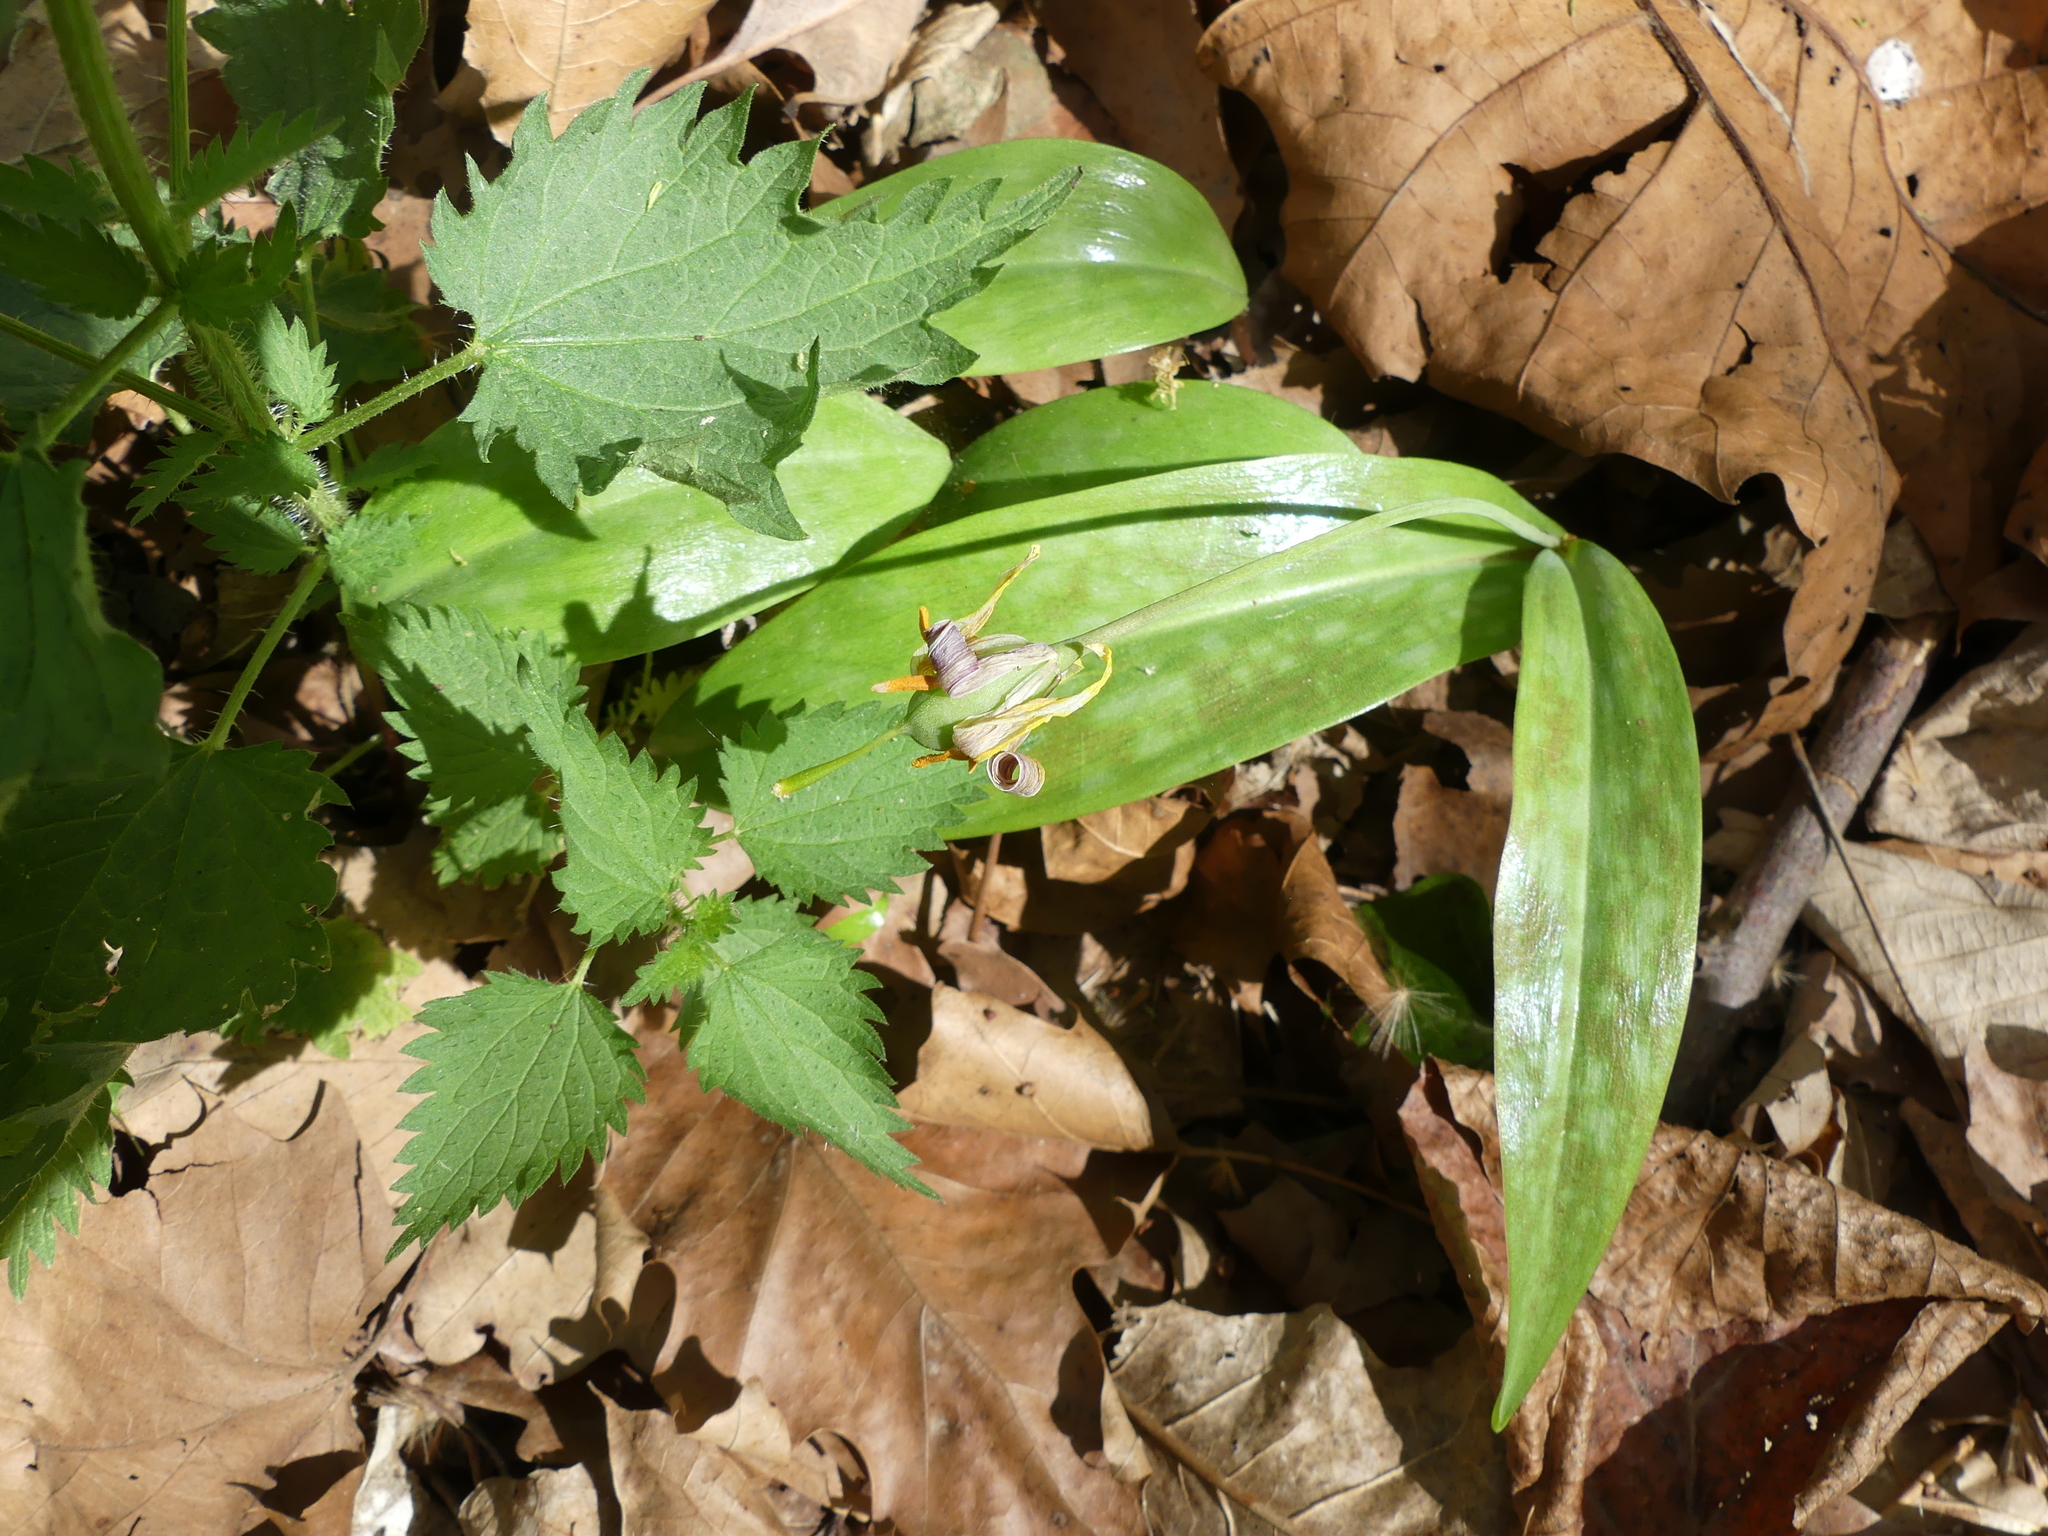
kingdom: Plantae
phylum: Tracheophyta
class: Liliopsida
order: Liliales
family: Liliaceae
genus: Erythronium
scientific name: Erythronium americanum
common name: Yellow adder's-tongue
